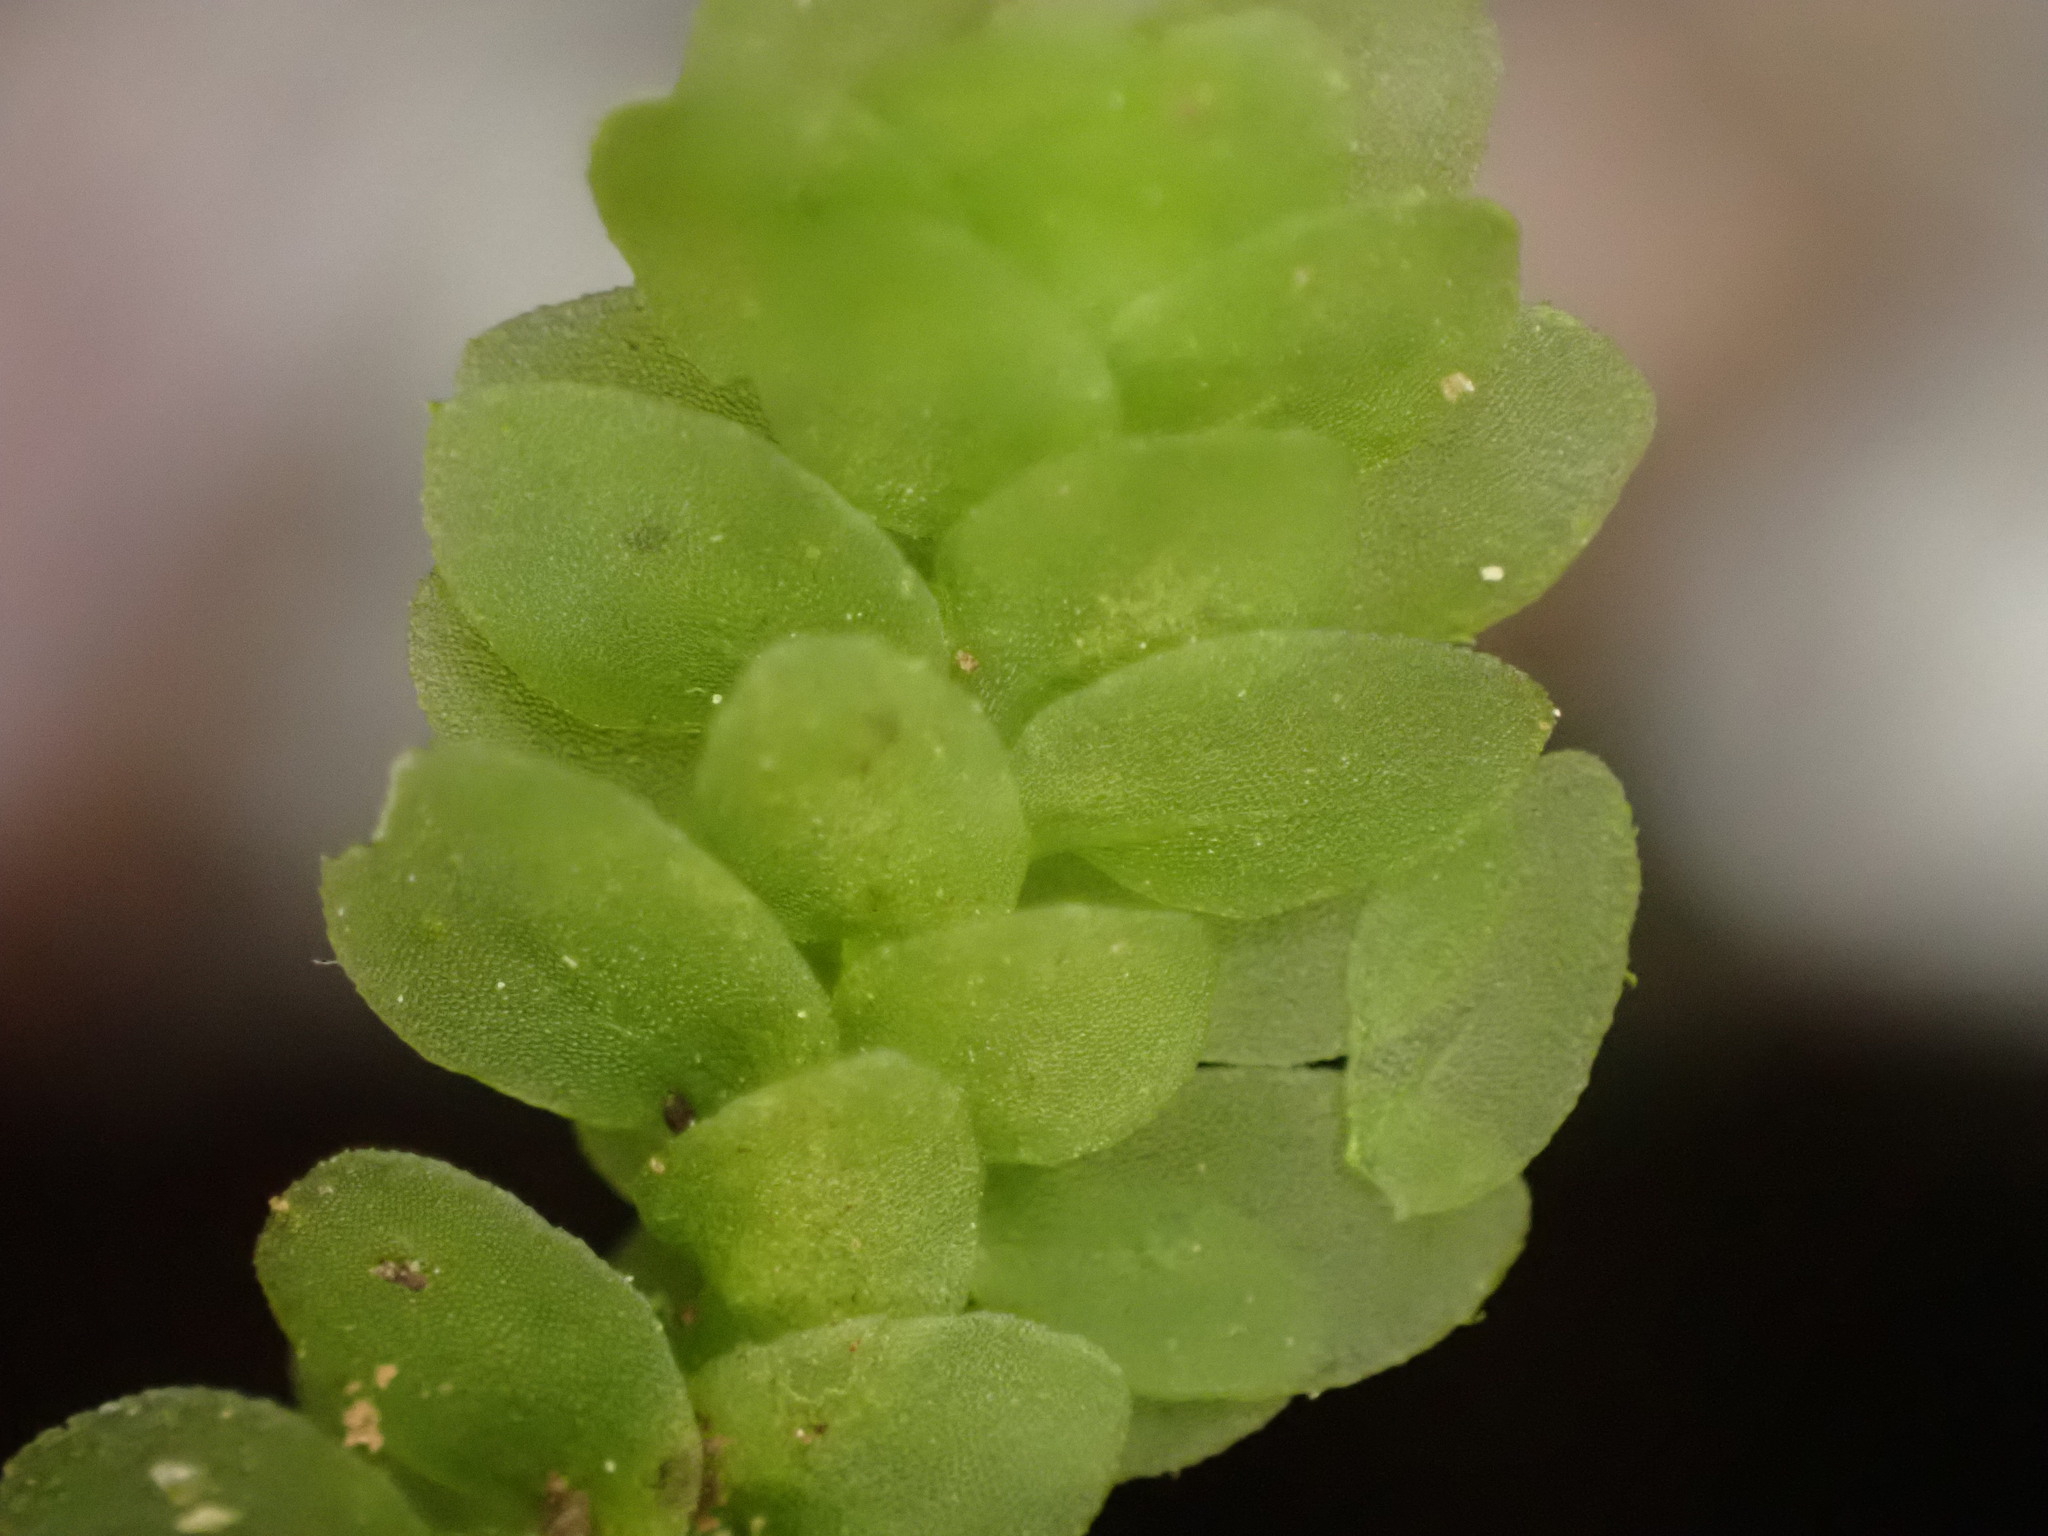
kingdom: Plantae
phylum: Bryophyta
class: Bryopsida
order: Hookeriales
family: Daltoniaceae
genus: Achrophyllum
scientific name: Achrophyllum dentatum
